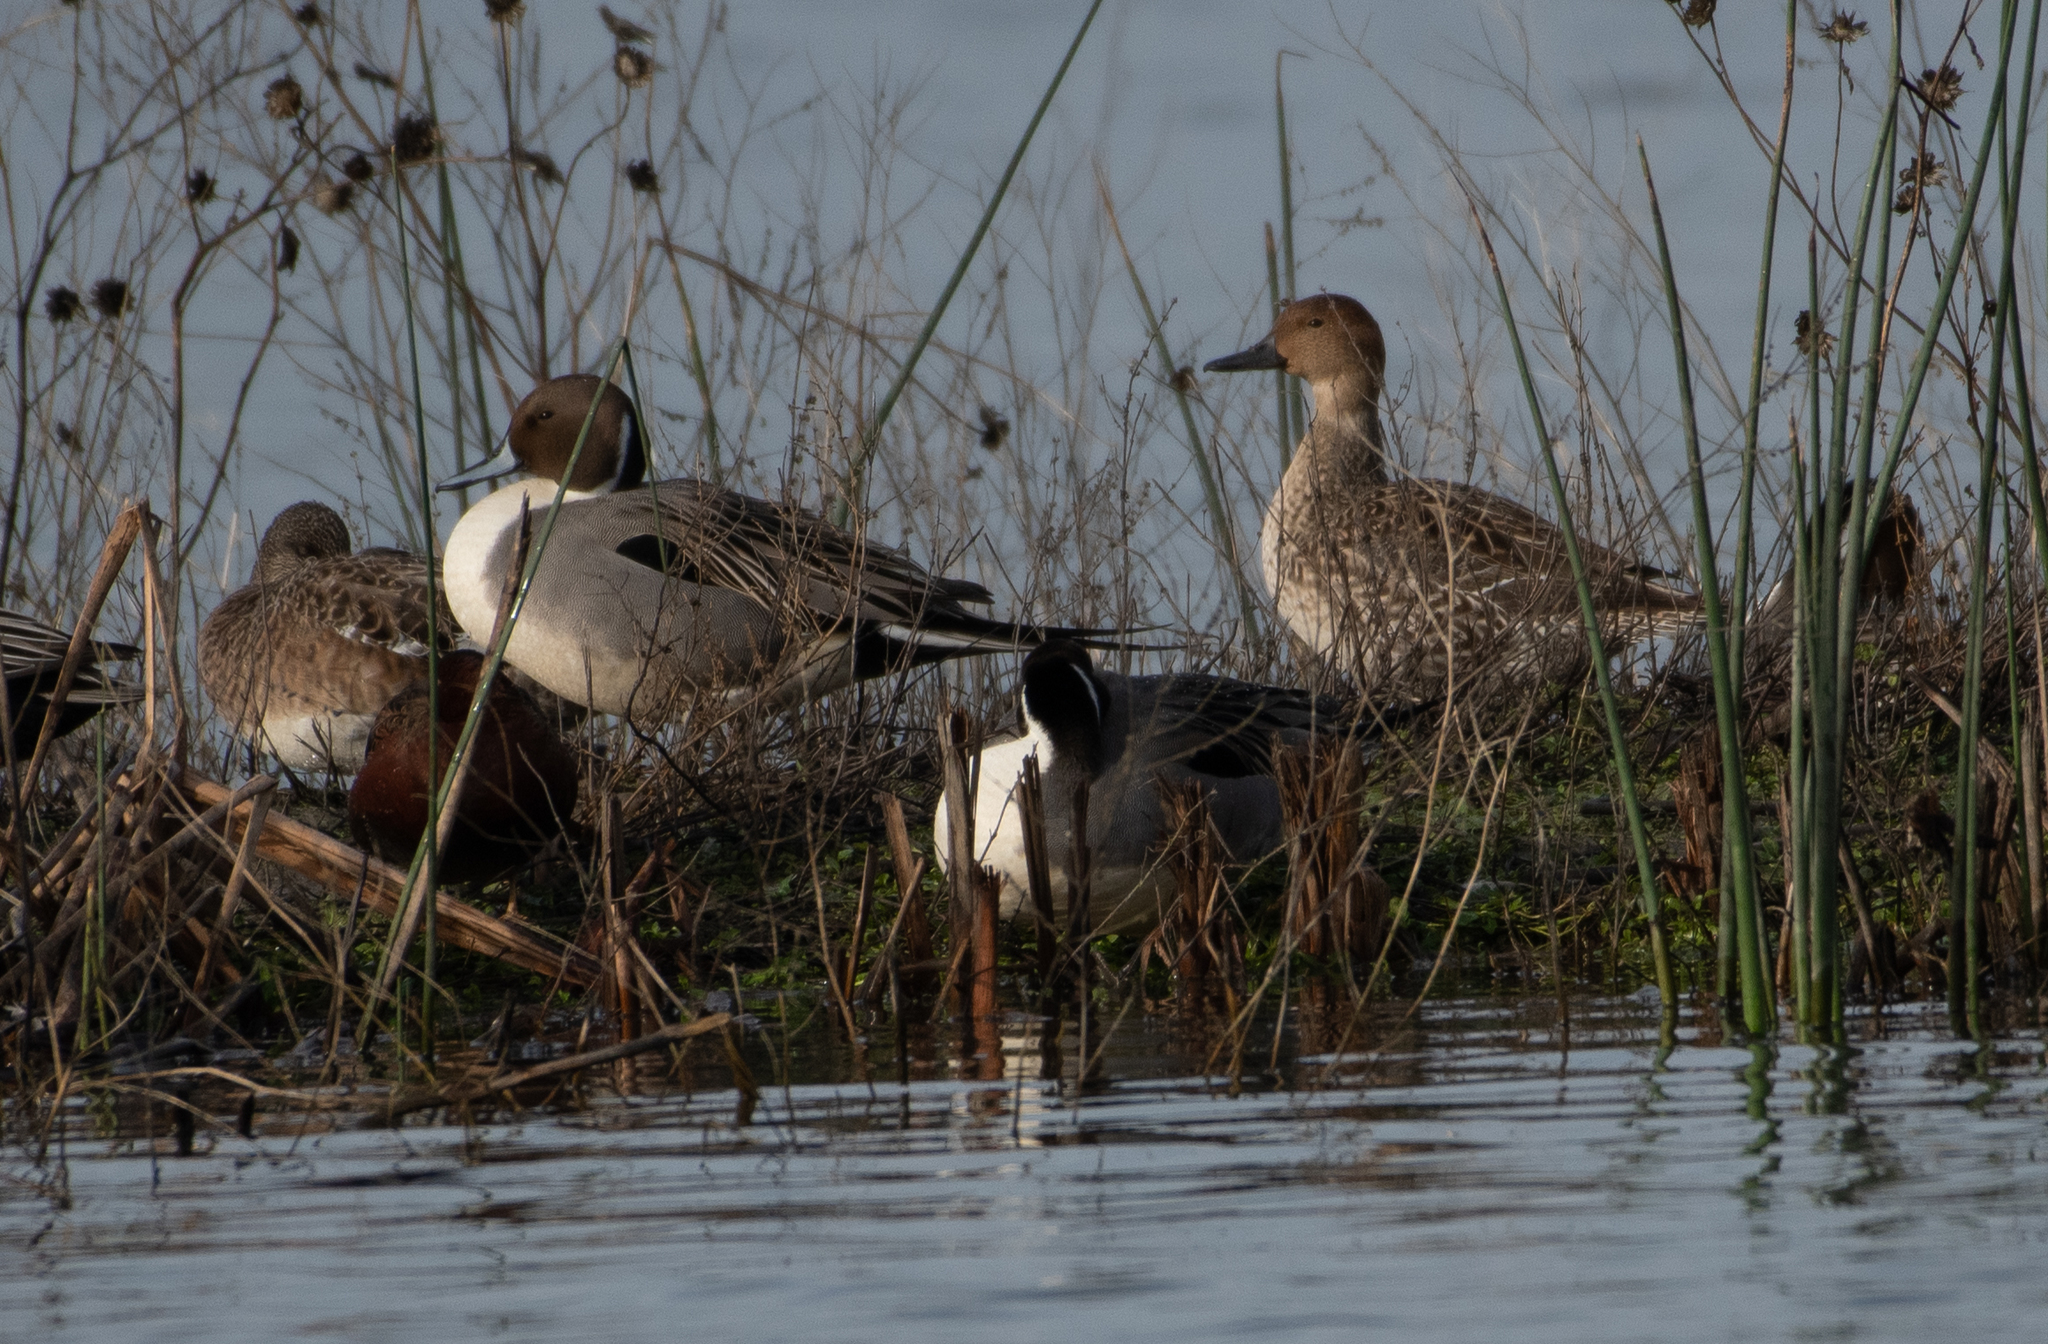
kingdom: Animalia
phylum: Chordata
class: Aves
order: Anseriformes
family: Anatidae
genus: Anas
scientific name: Anas acuta
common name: Northern pintail
